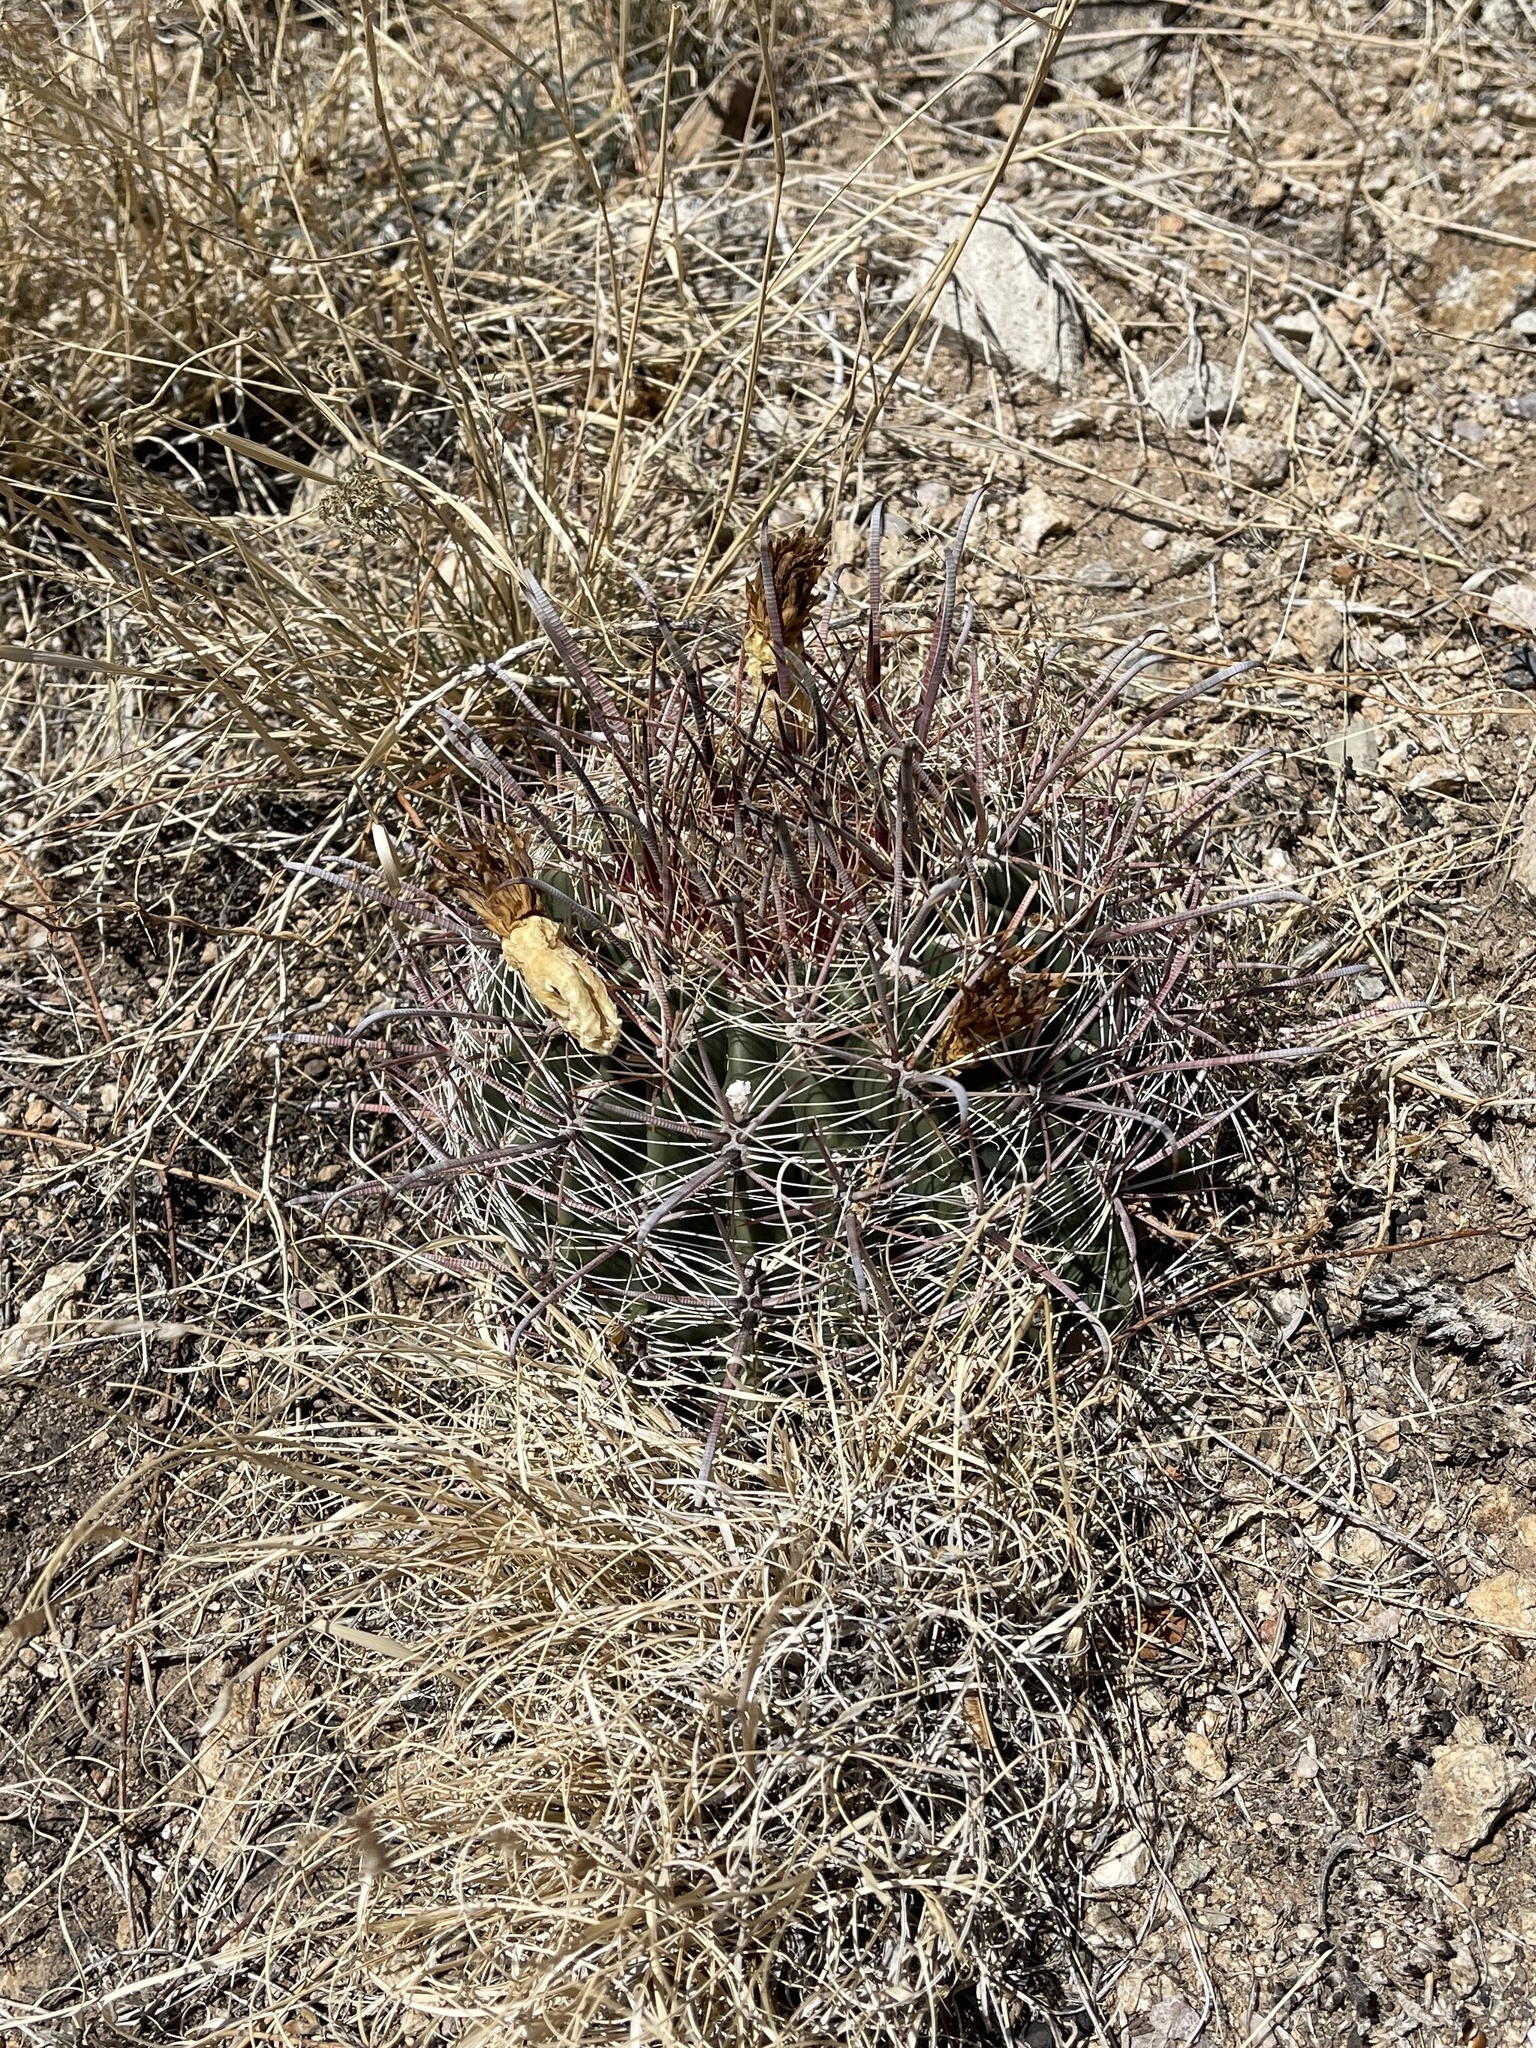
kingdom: Plantae
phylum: Tracheophyta
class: Magnoliopsida
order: Caryophyllales
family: Cactaceae
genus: Ferocactus
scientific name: Ferocactus wislizeni
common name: Candy barrel cactus
